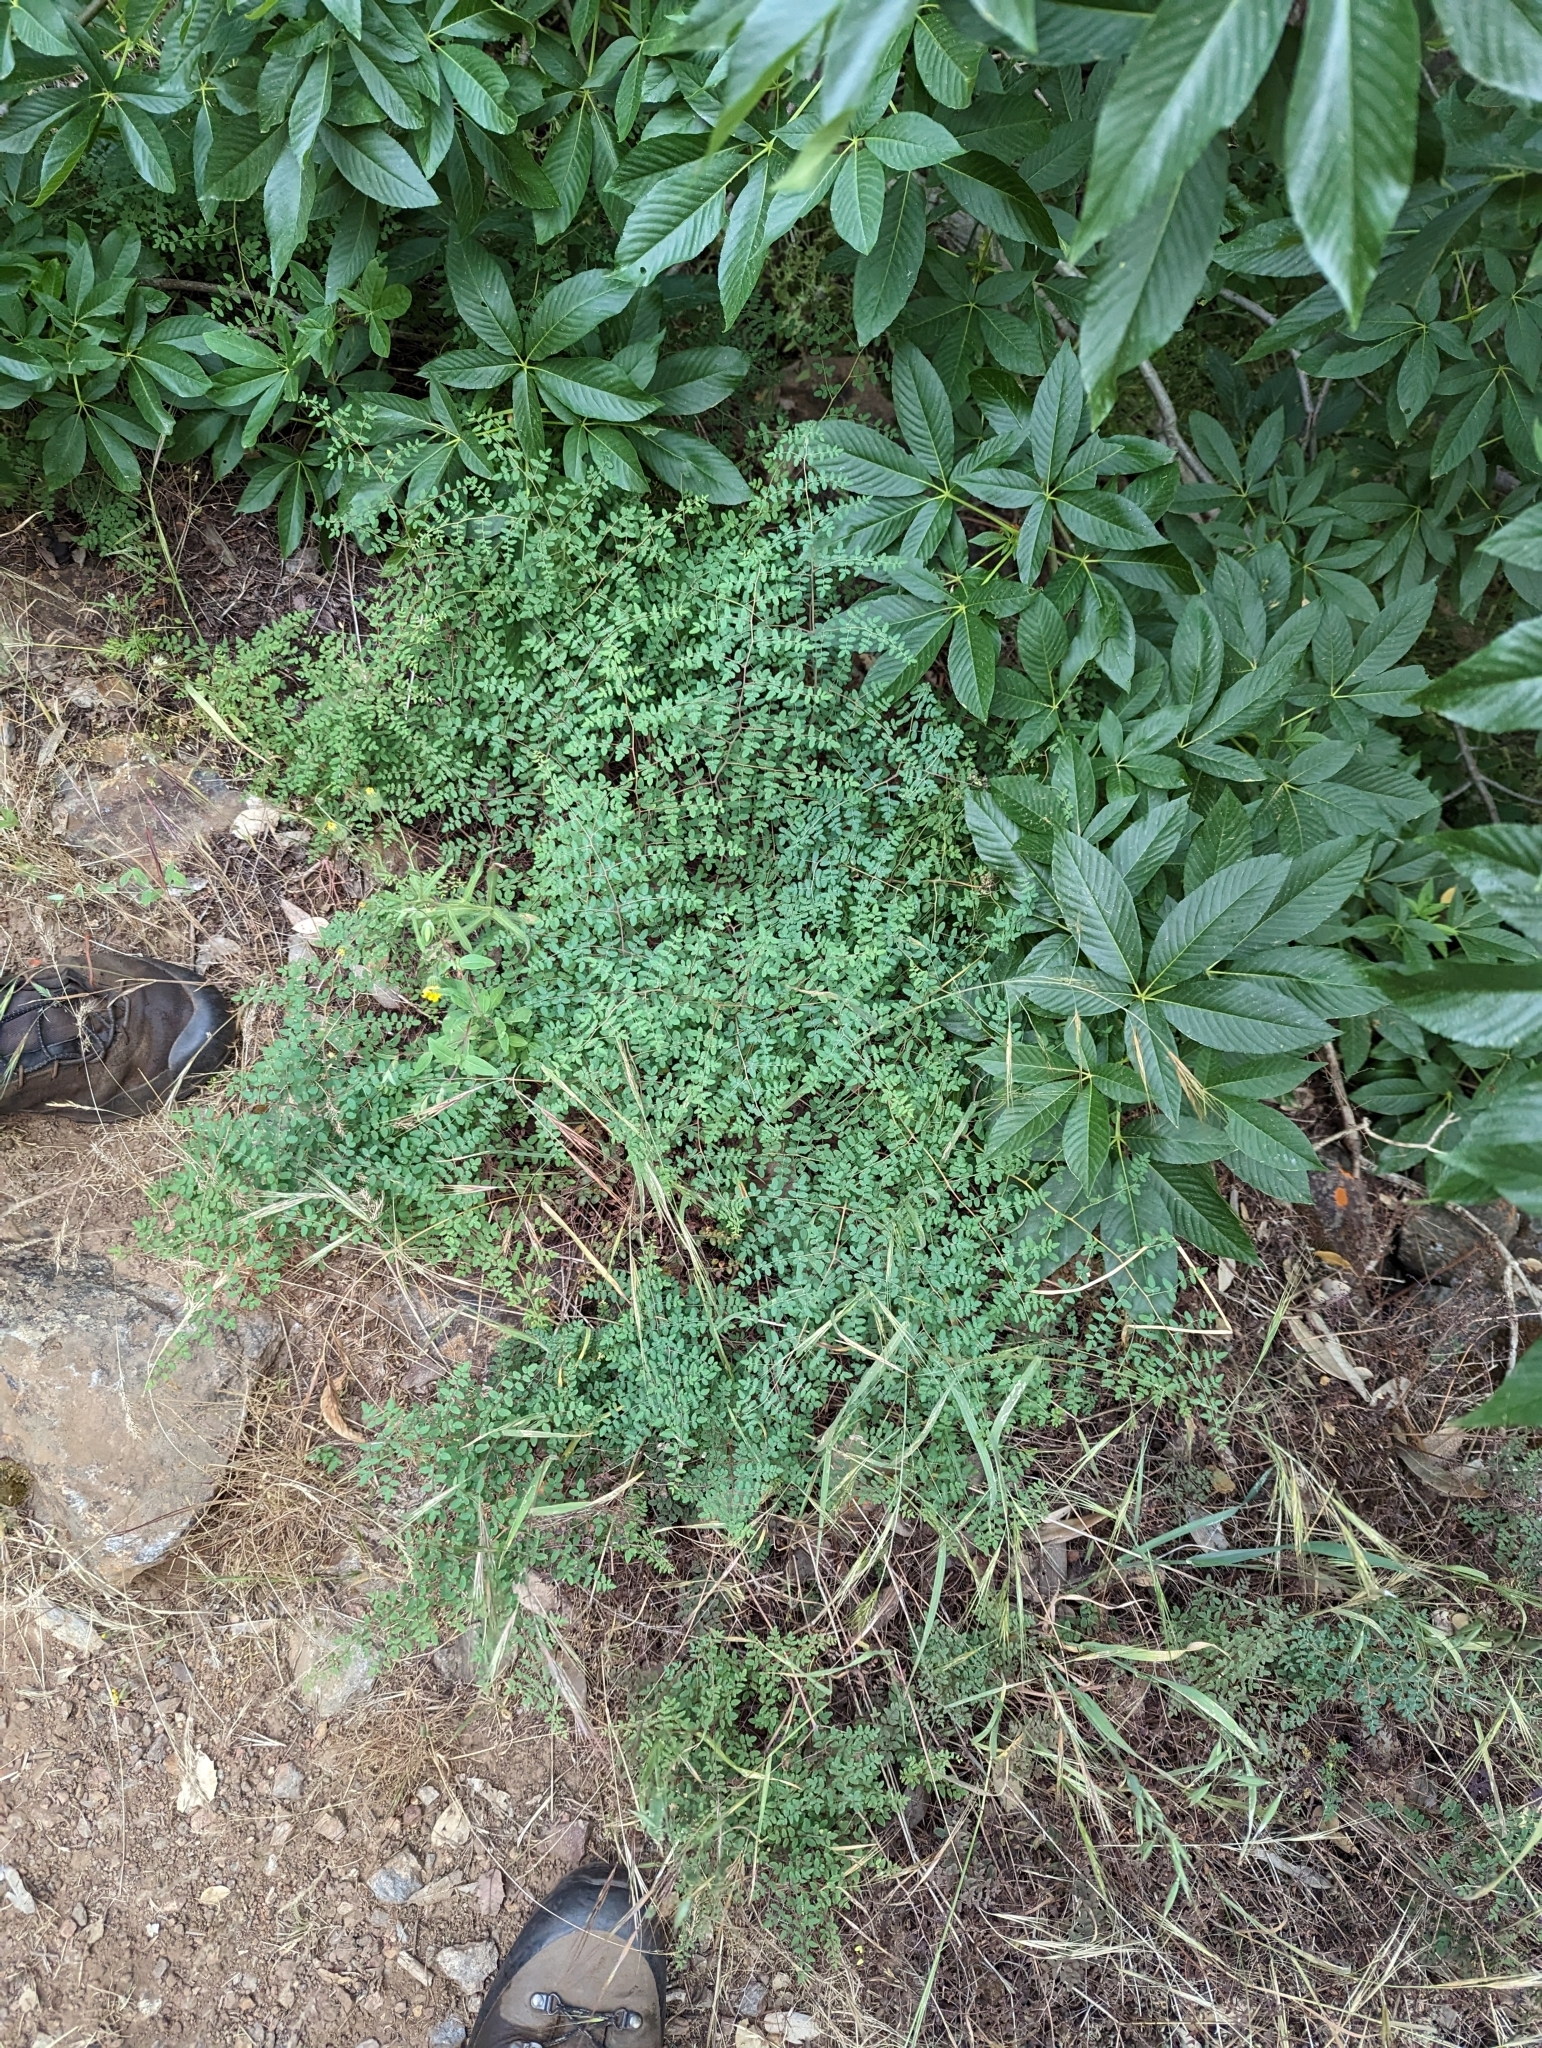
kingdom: Plantae
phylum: Tracheophyta
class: Polypodiopsida
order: Polypodiales
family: Pteridaceae
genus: Pellaea
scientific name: Pellaea andromedifolia
